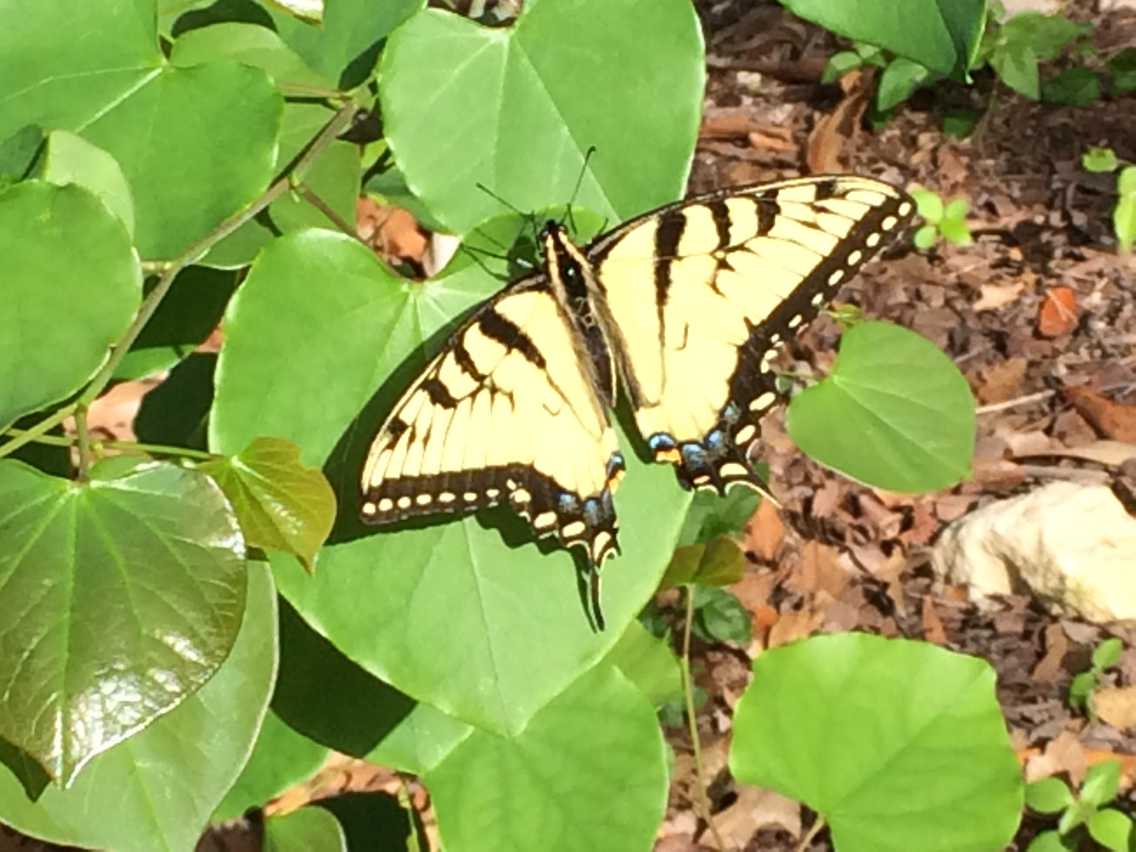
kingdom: Animalia
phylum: Arthropoda
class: Insecta
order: Lepidoptera
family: Papilionidae
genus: Papilio
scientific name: Papilio glaucus
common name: Tiger swallowtail
